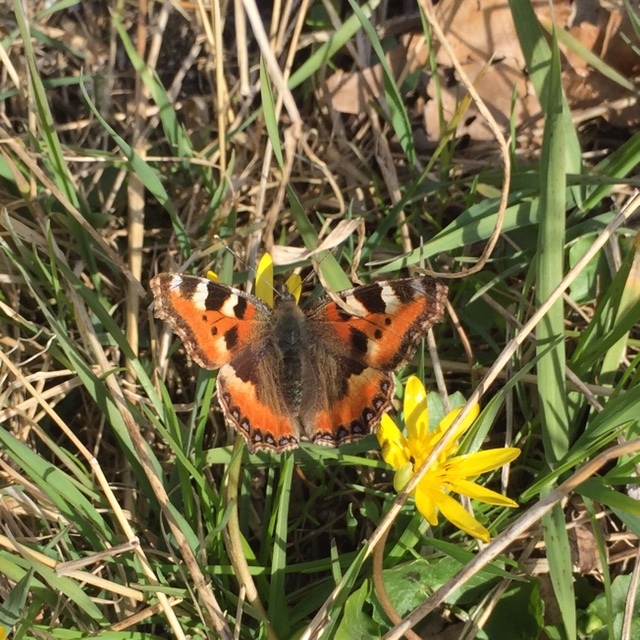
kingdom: Animalia
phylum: Arthropoda
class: Insecta
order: Lepidoptera
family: Nymphalidae
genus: Aglais
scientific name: Aglais urticae
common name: Small tortoiseshell
